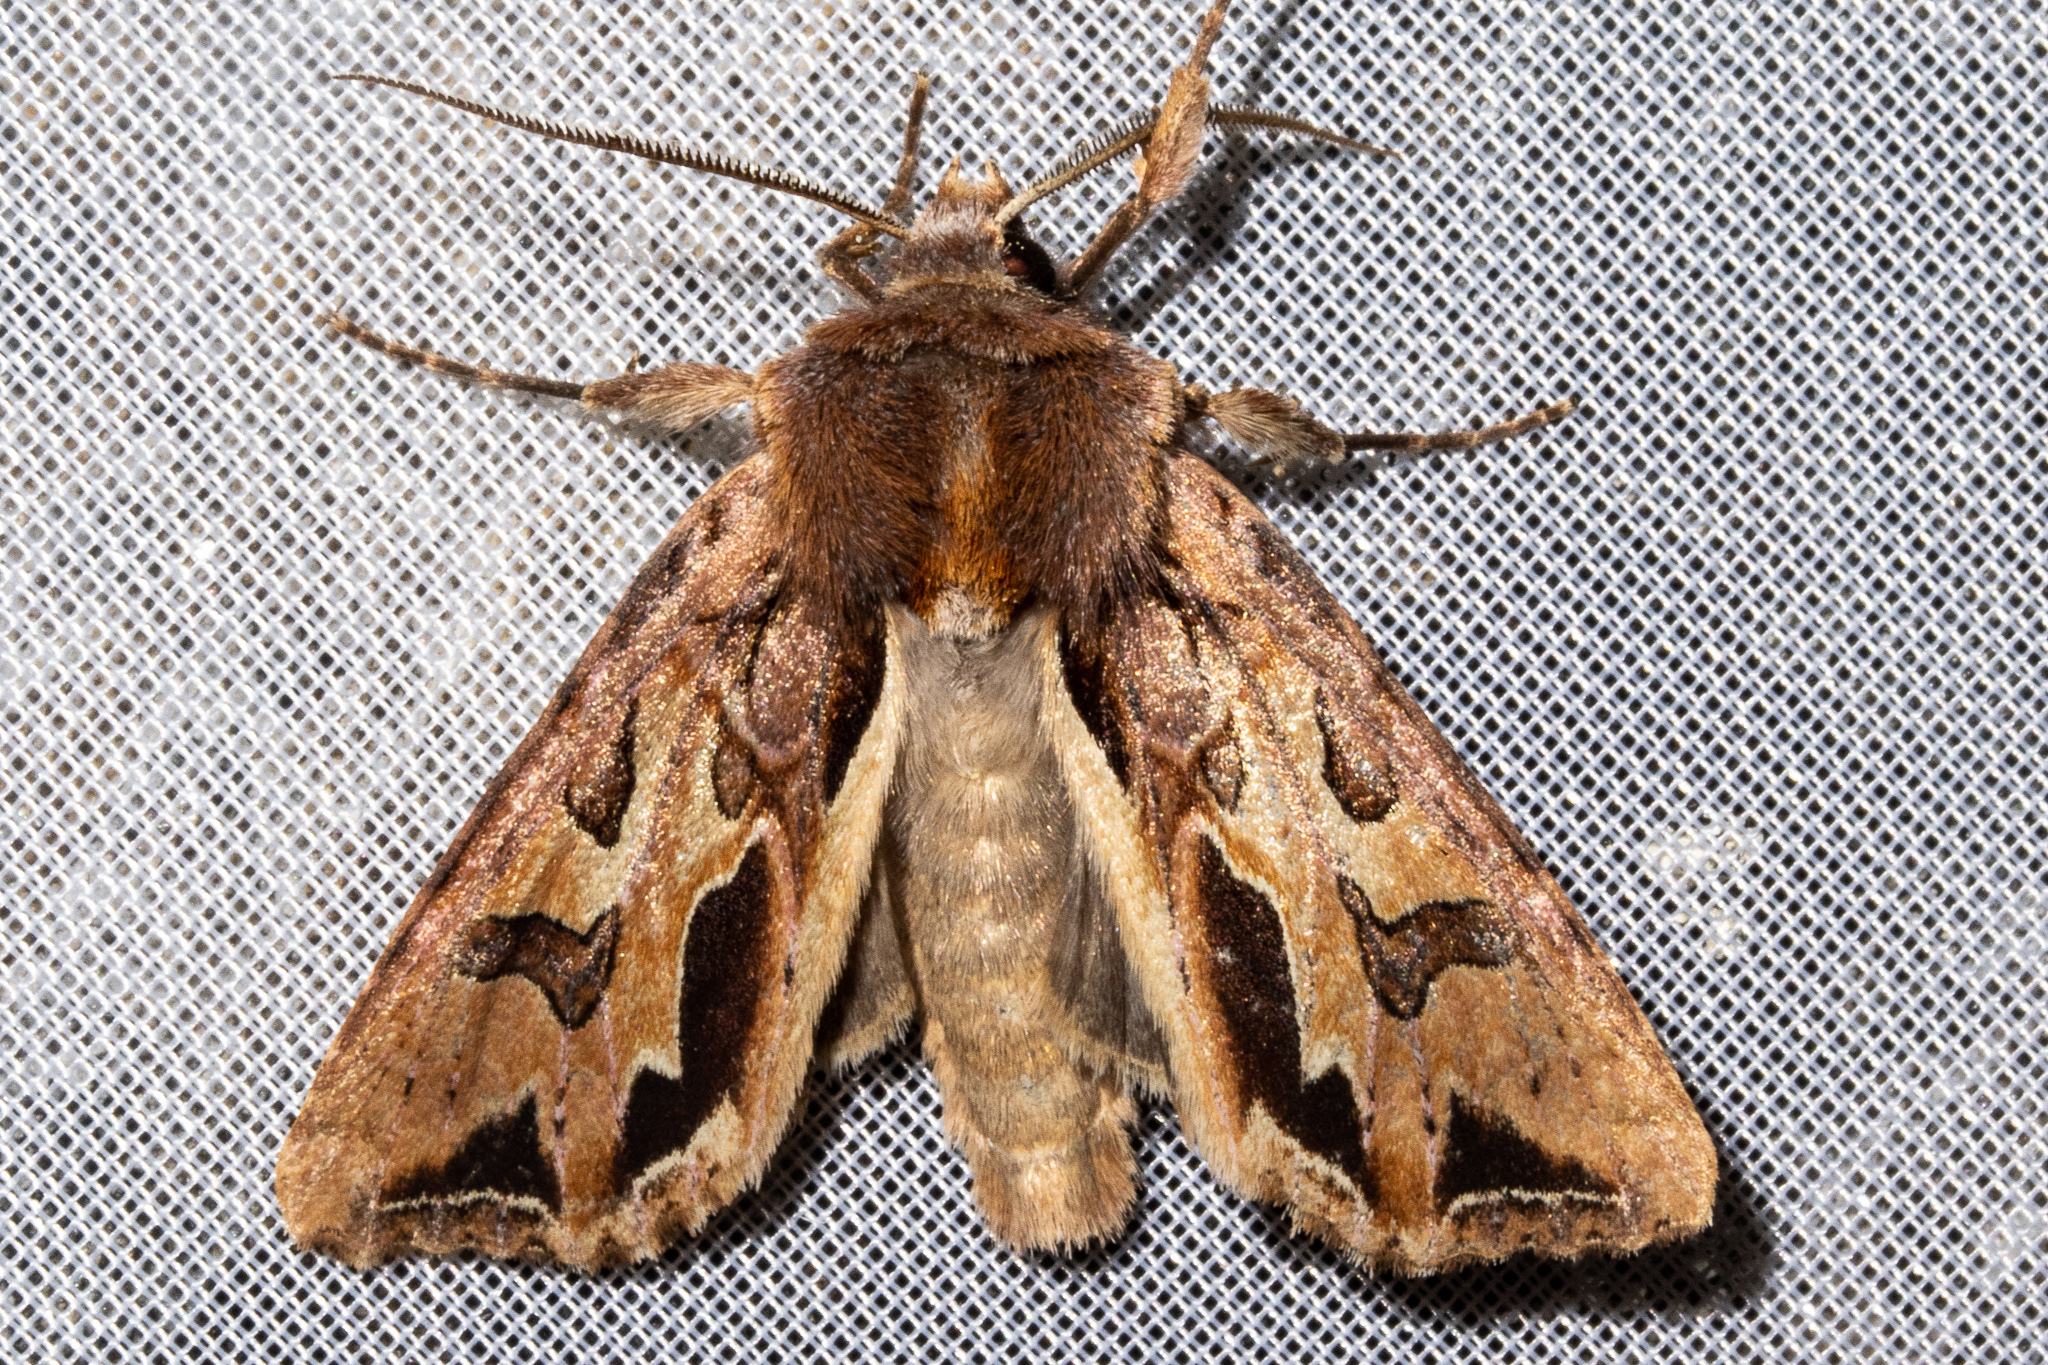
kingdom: Animalia
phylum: Arthropoda
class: Insecta
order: Lepidoptera
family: Noctuidae
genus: Ichneutica
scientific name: Ichneutica
